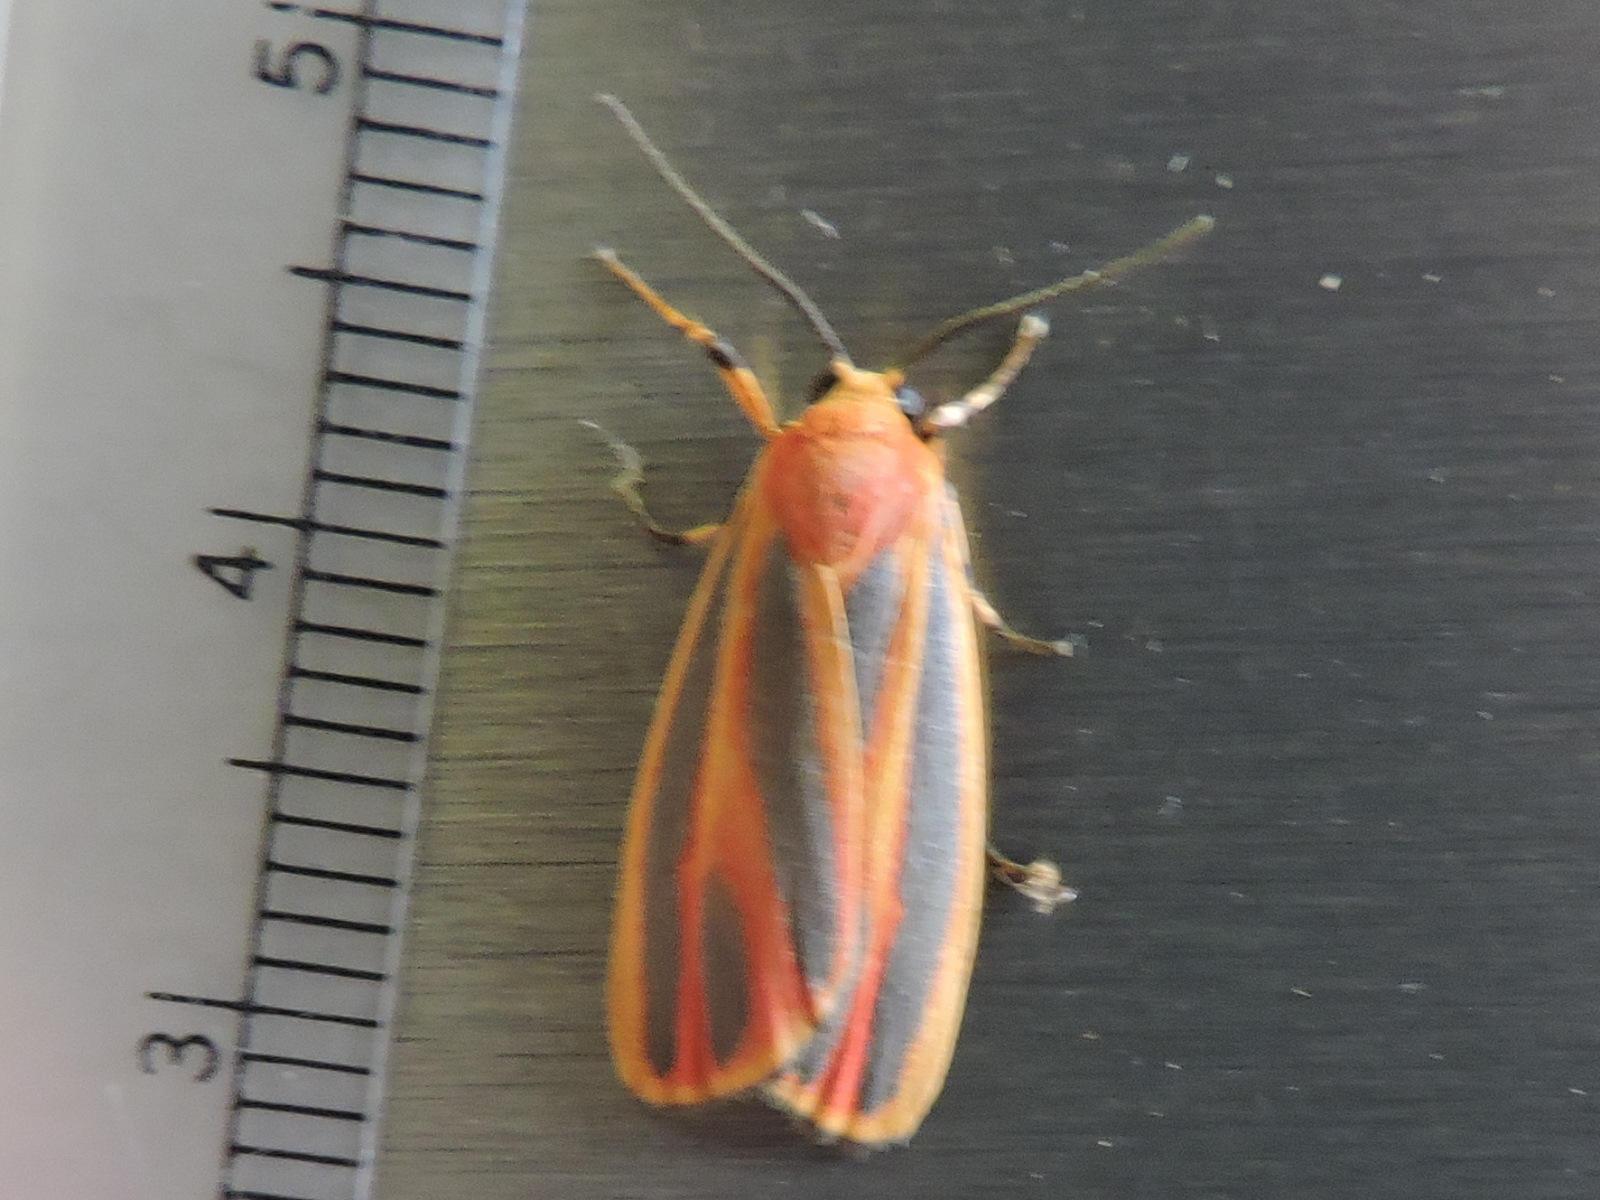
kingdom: Animalia
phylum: Arthropoda
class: Insecta
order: Lepidoptera
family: Erebidae
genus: Hypoprepia
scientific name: Hypoprepia fucosa
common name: Painted lichen moth
